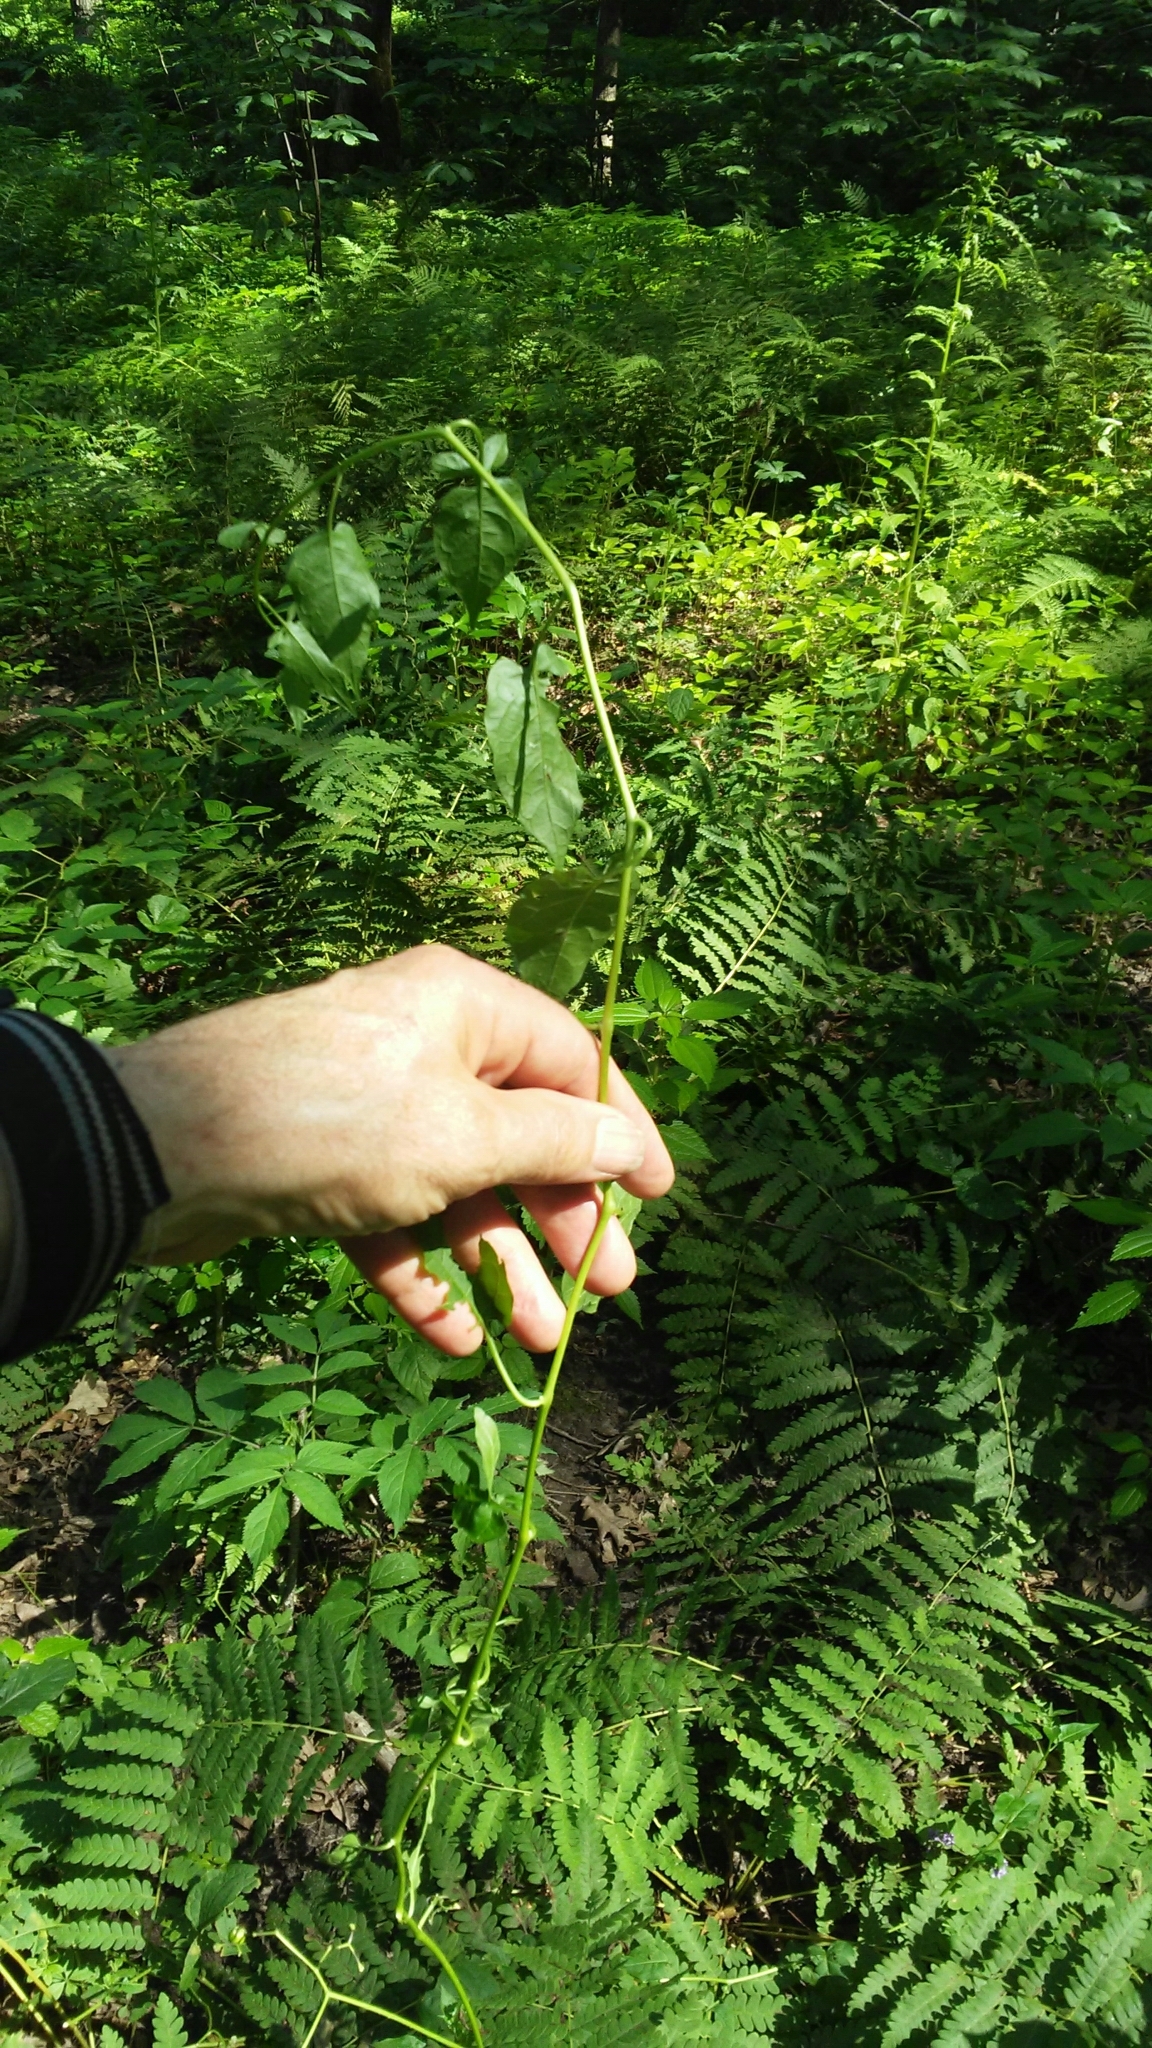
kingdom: Plantae
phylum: Tracheophyta
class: Magnoliopsida
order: Solanales
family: Solanaceae
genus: Solanum
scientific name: Solanum dulcamara
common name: Climbing nightshade
